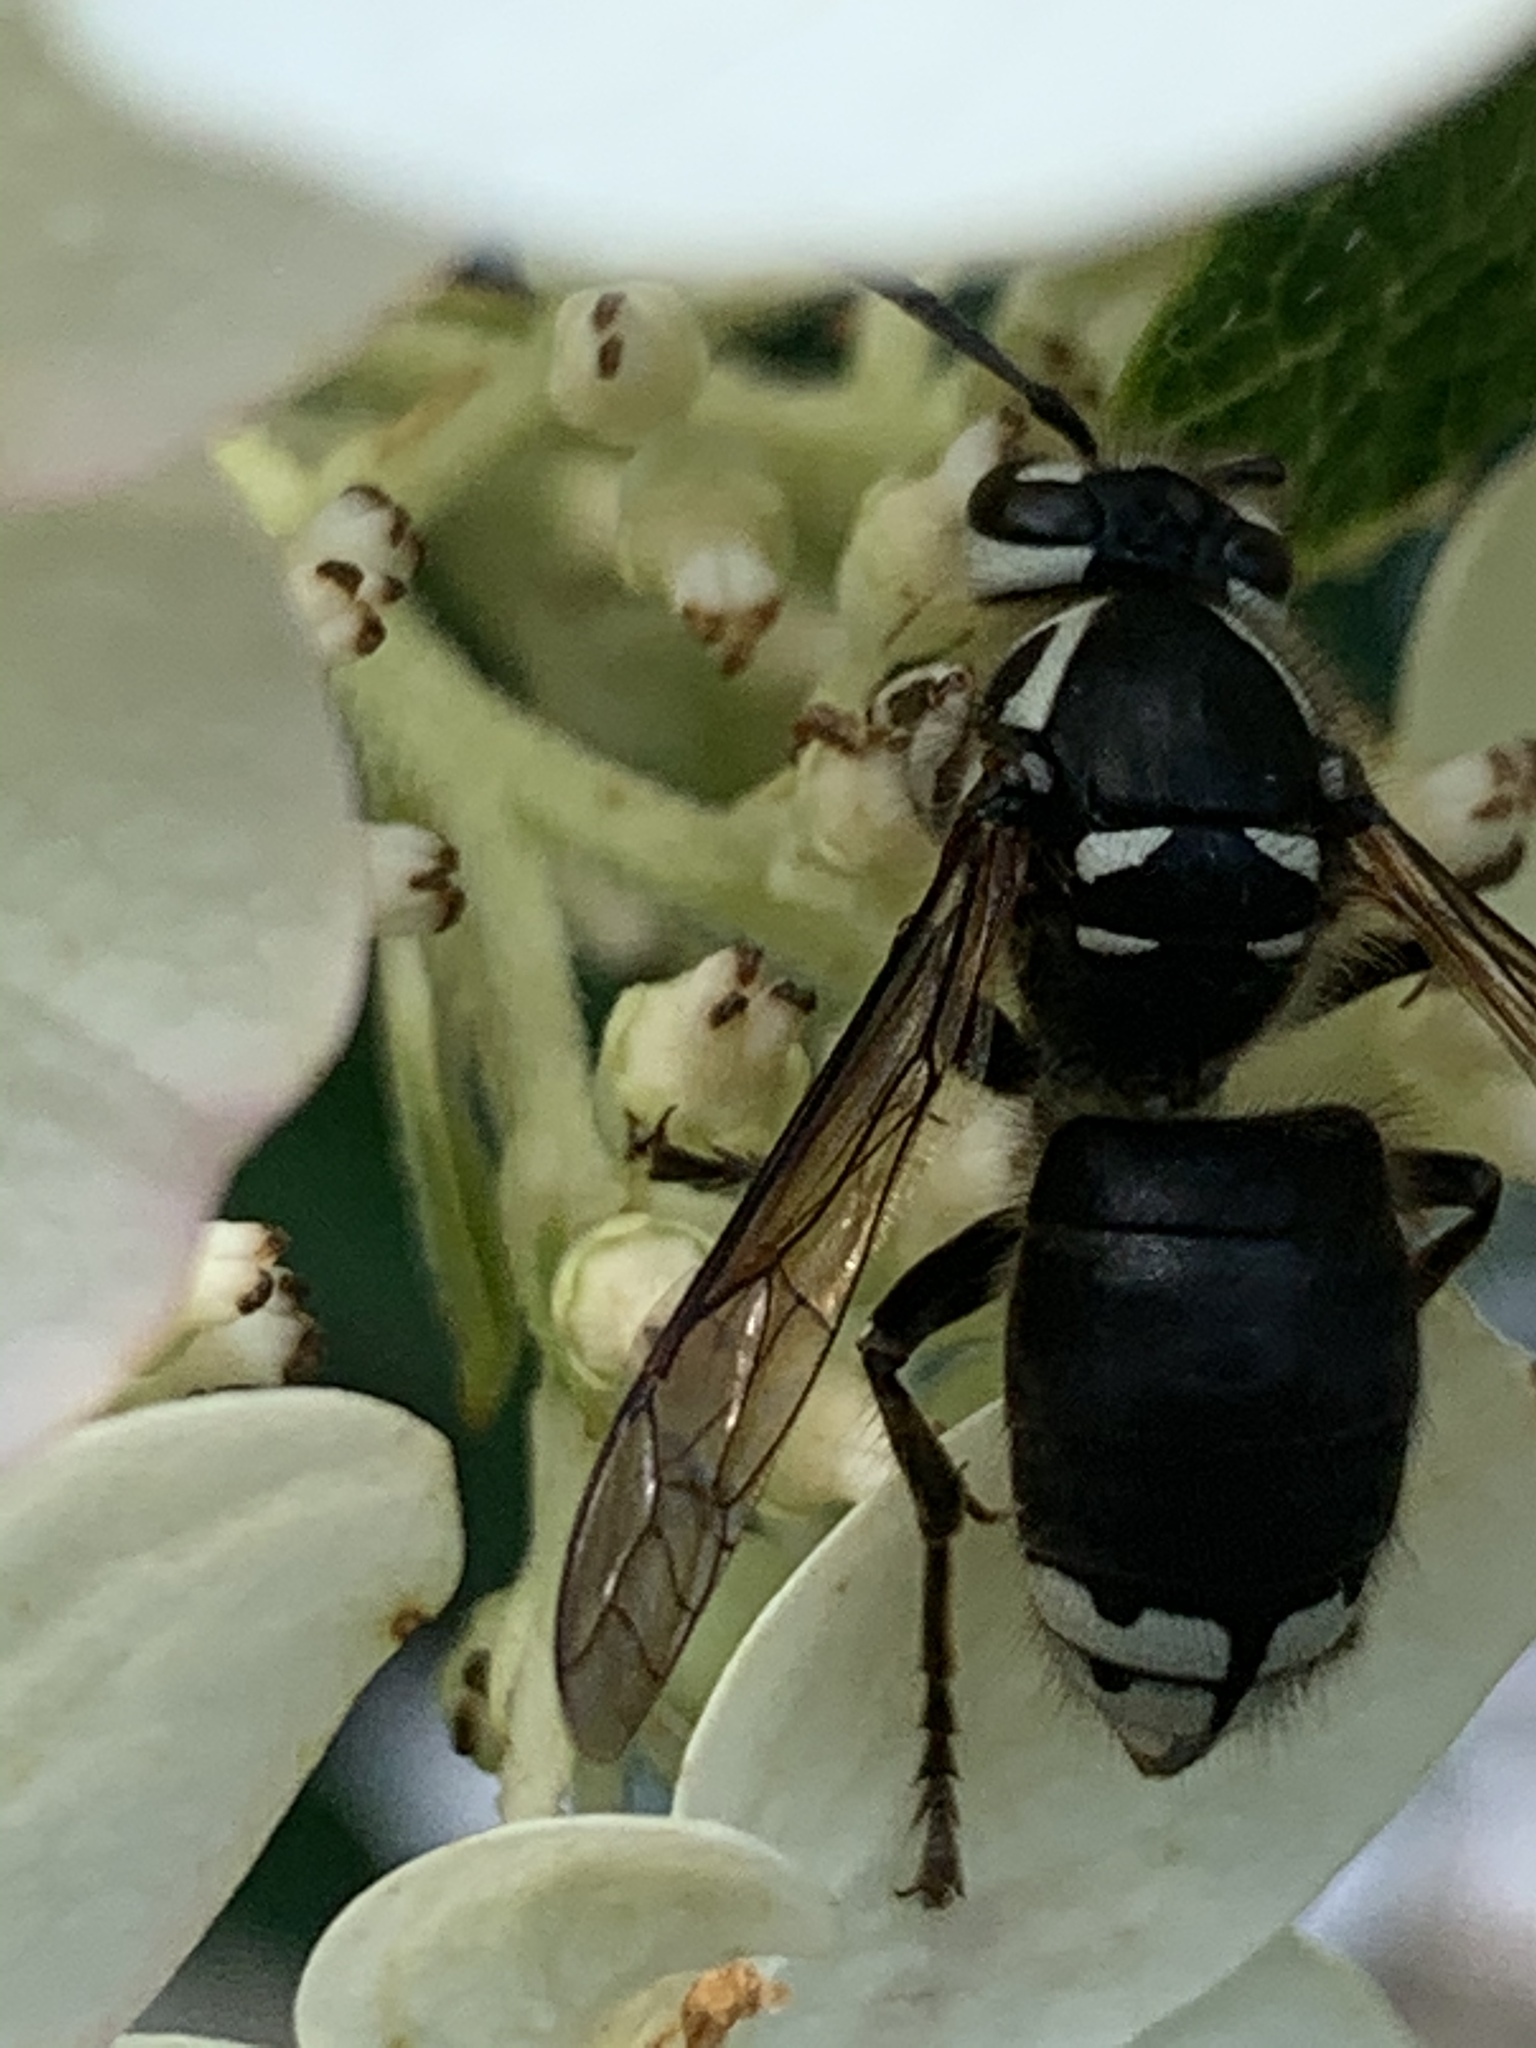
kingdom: Animalia
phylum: Arthropoda
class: Insecta
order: Hymenoptera
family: Vespidae
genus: Dolichovespula
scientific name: Dolichovespula maculata
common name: Bald-faced hornet
